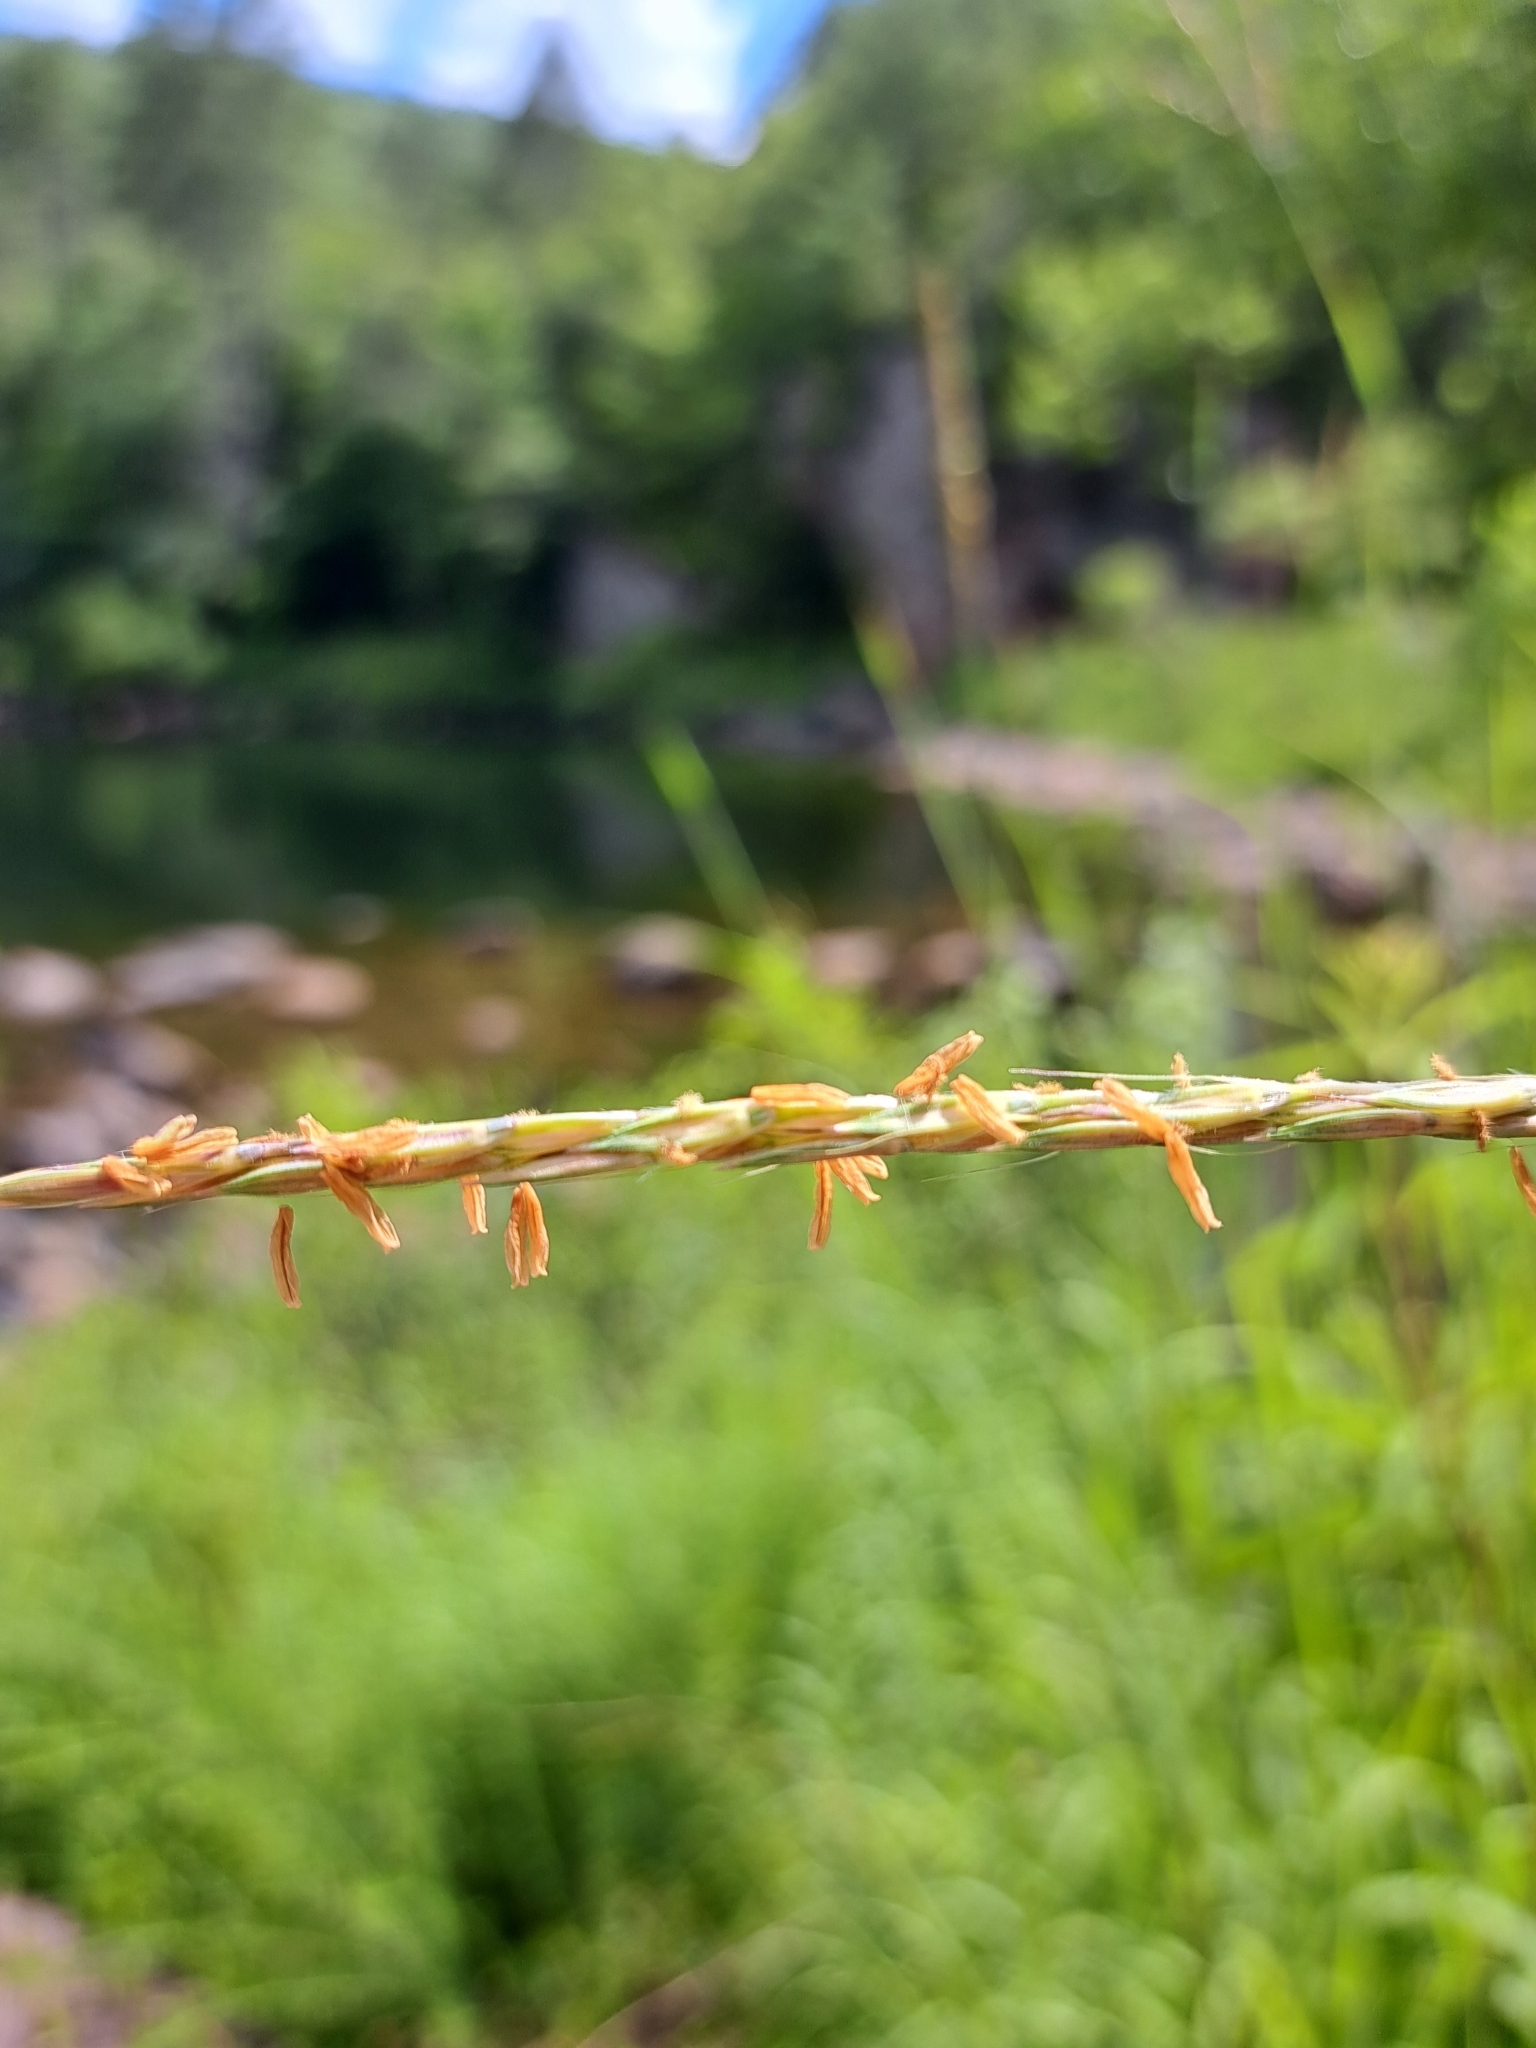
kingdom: Plantae
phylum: Tracheophyta
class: Liliopsida
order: Poales
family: Poaceae
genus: Andropogon
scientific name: Andropogon gerardi
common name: Big bluestem
